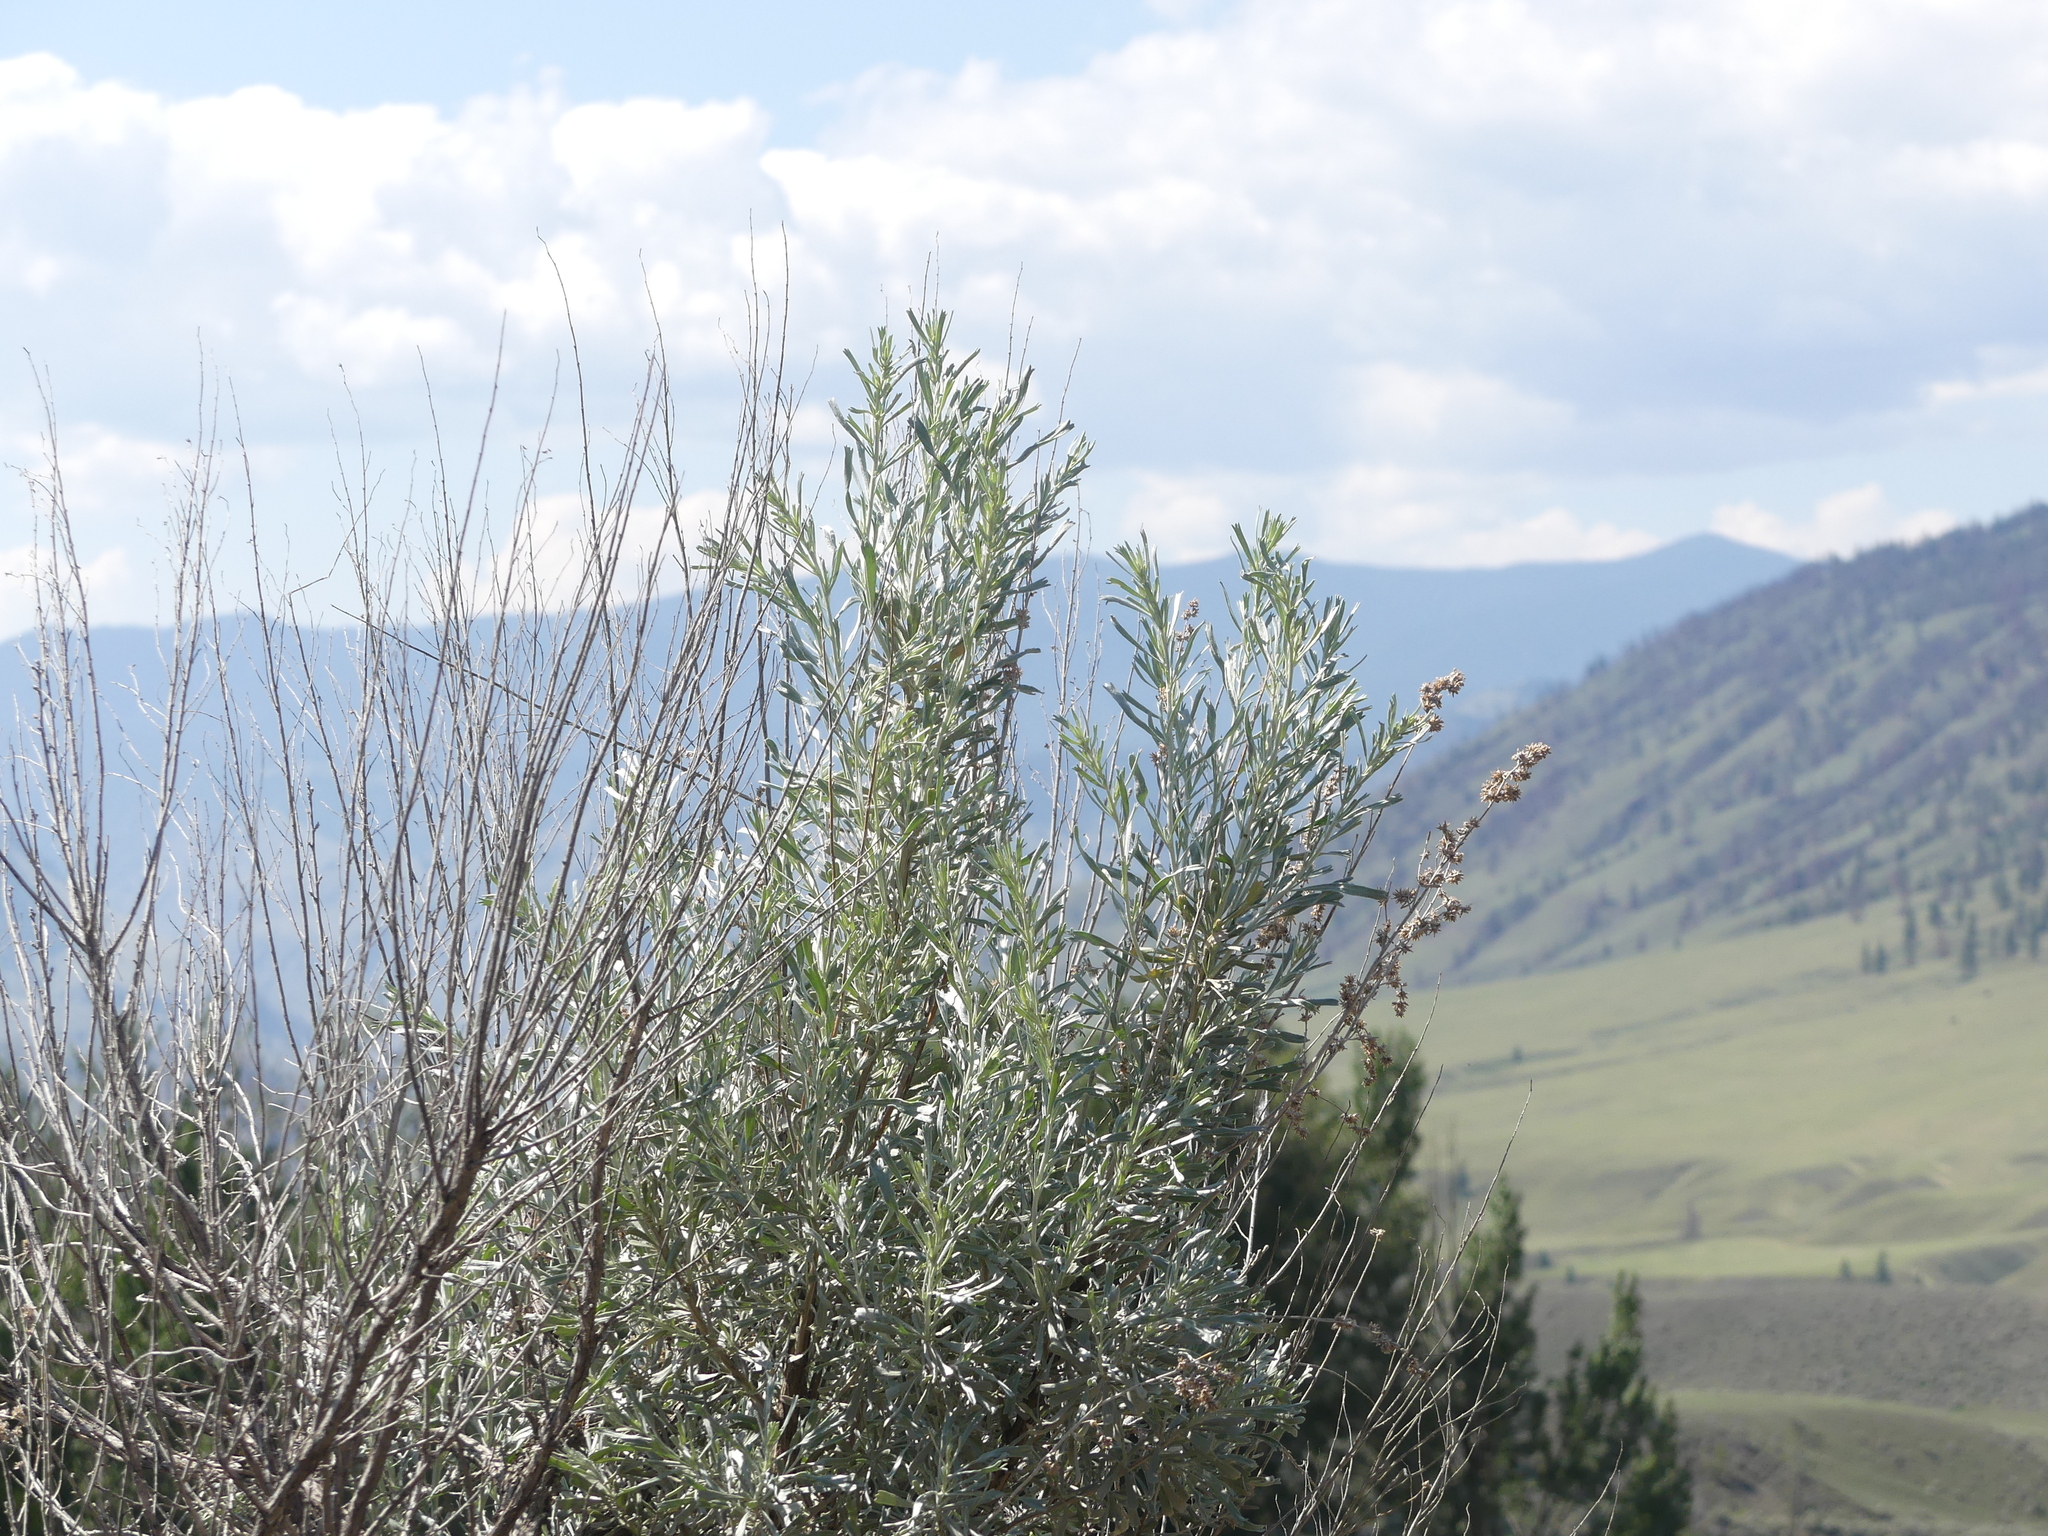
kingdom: Plantae
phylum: Tracheophyta
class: Magnoliopsida
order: Asterales
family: Asteraceae
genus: Artemisia
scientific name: Artemisia tridentata
